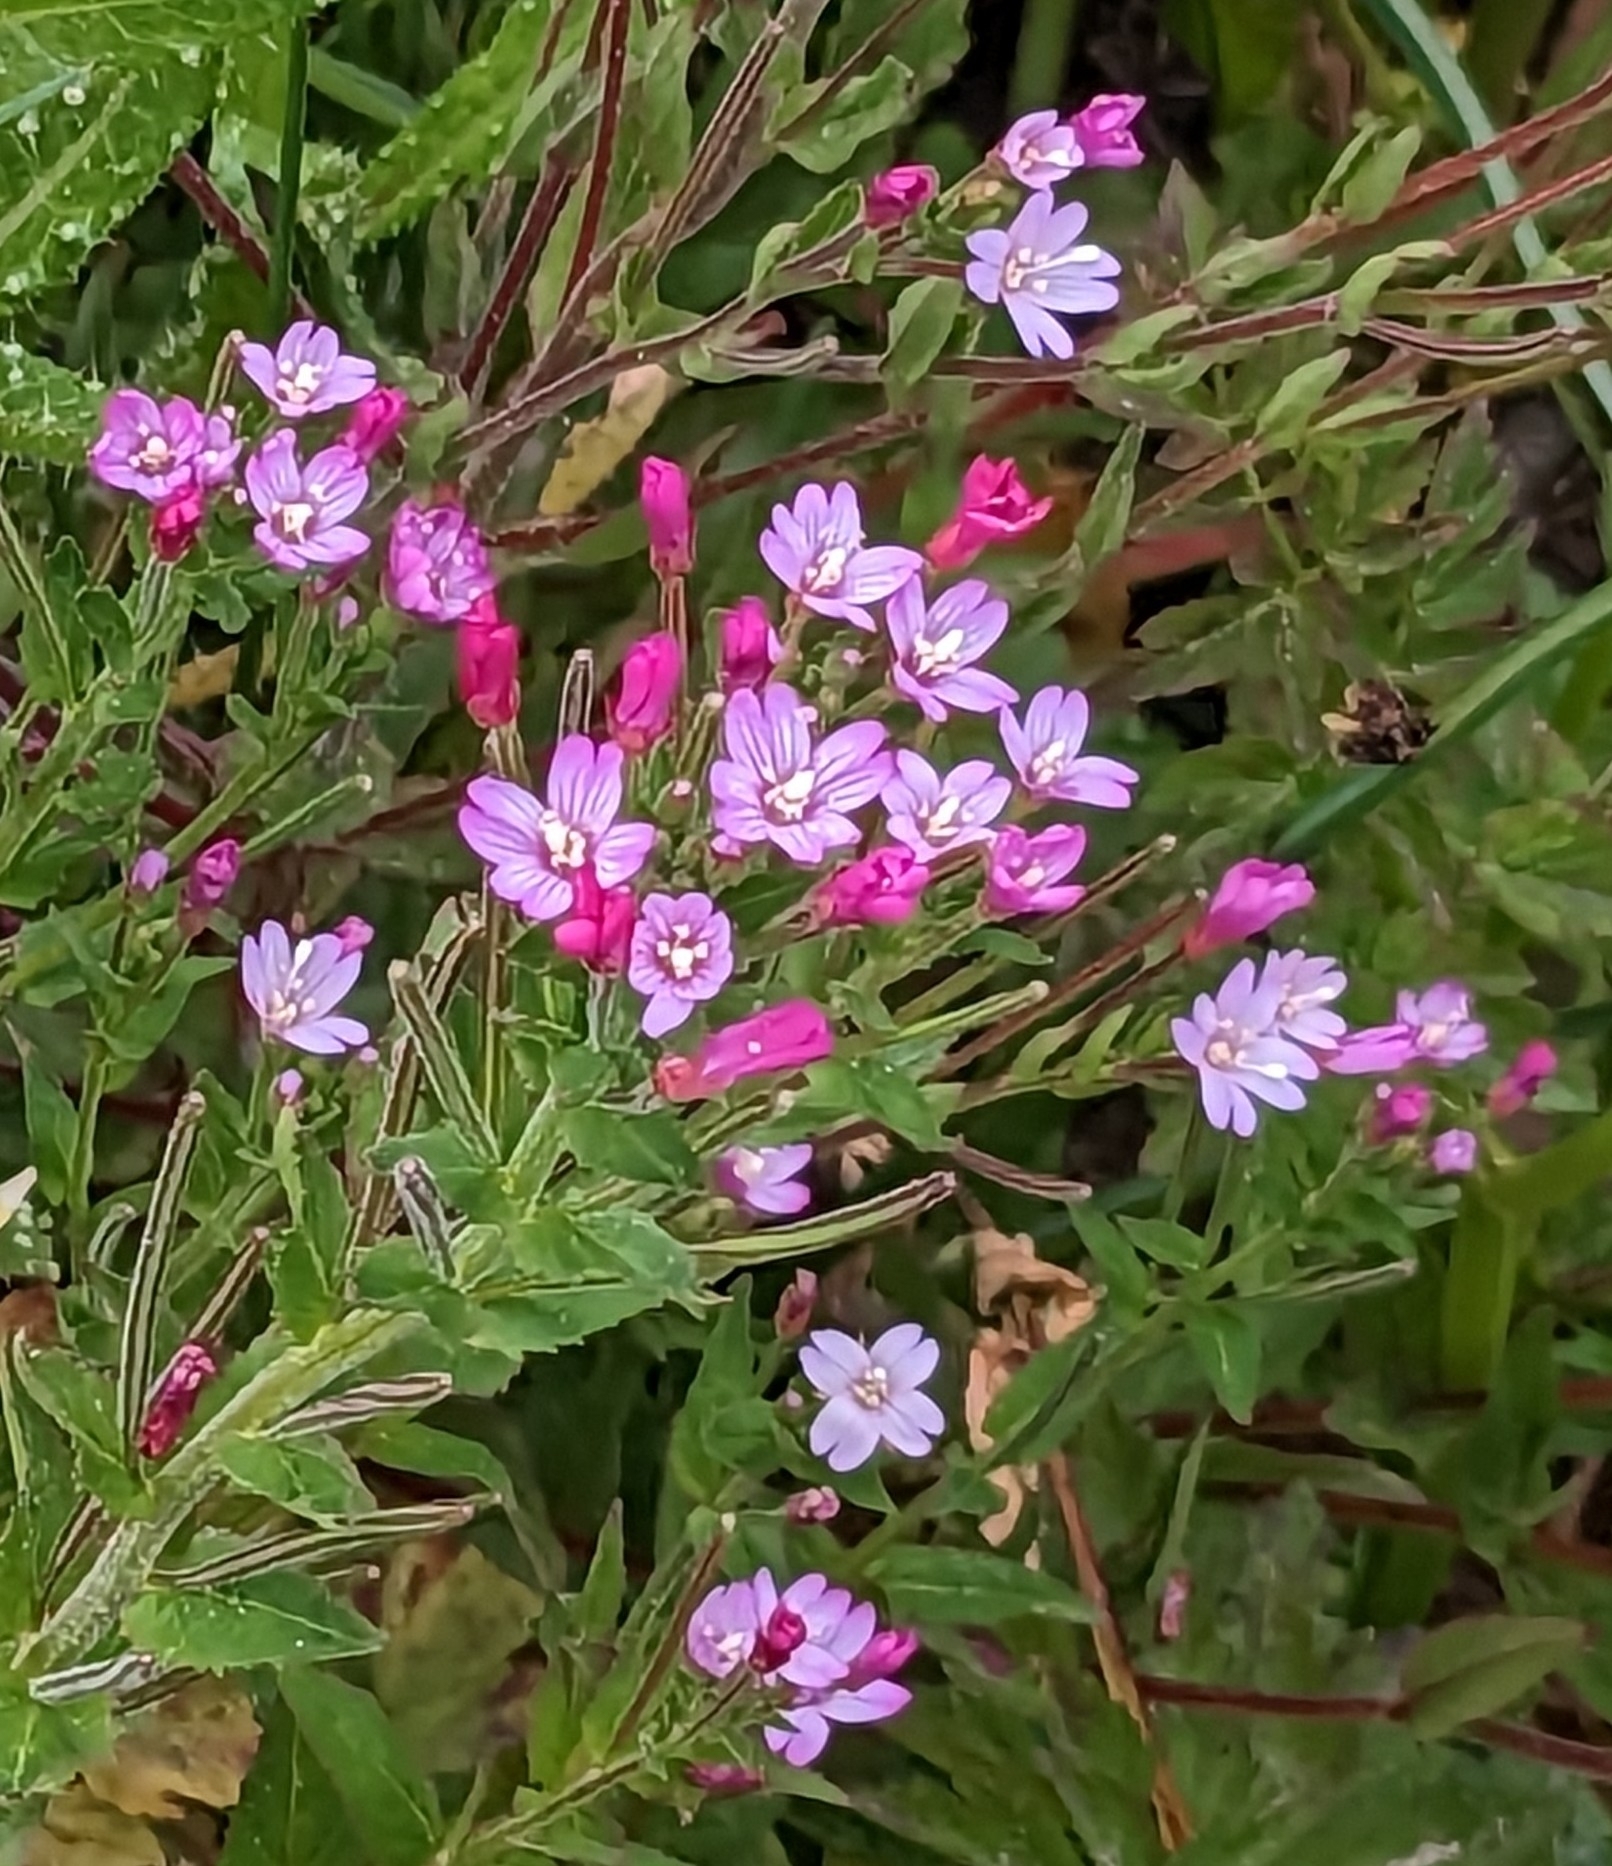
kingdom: Plantae
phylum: Tracheophyta
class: Magnoliopsida
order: Myrtales
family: Onagraceae
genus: Epilobium
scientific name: Epilobium ciliatum
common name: American willowherb
